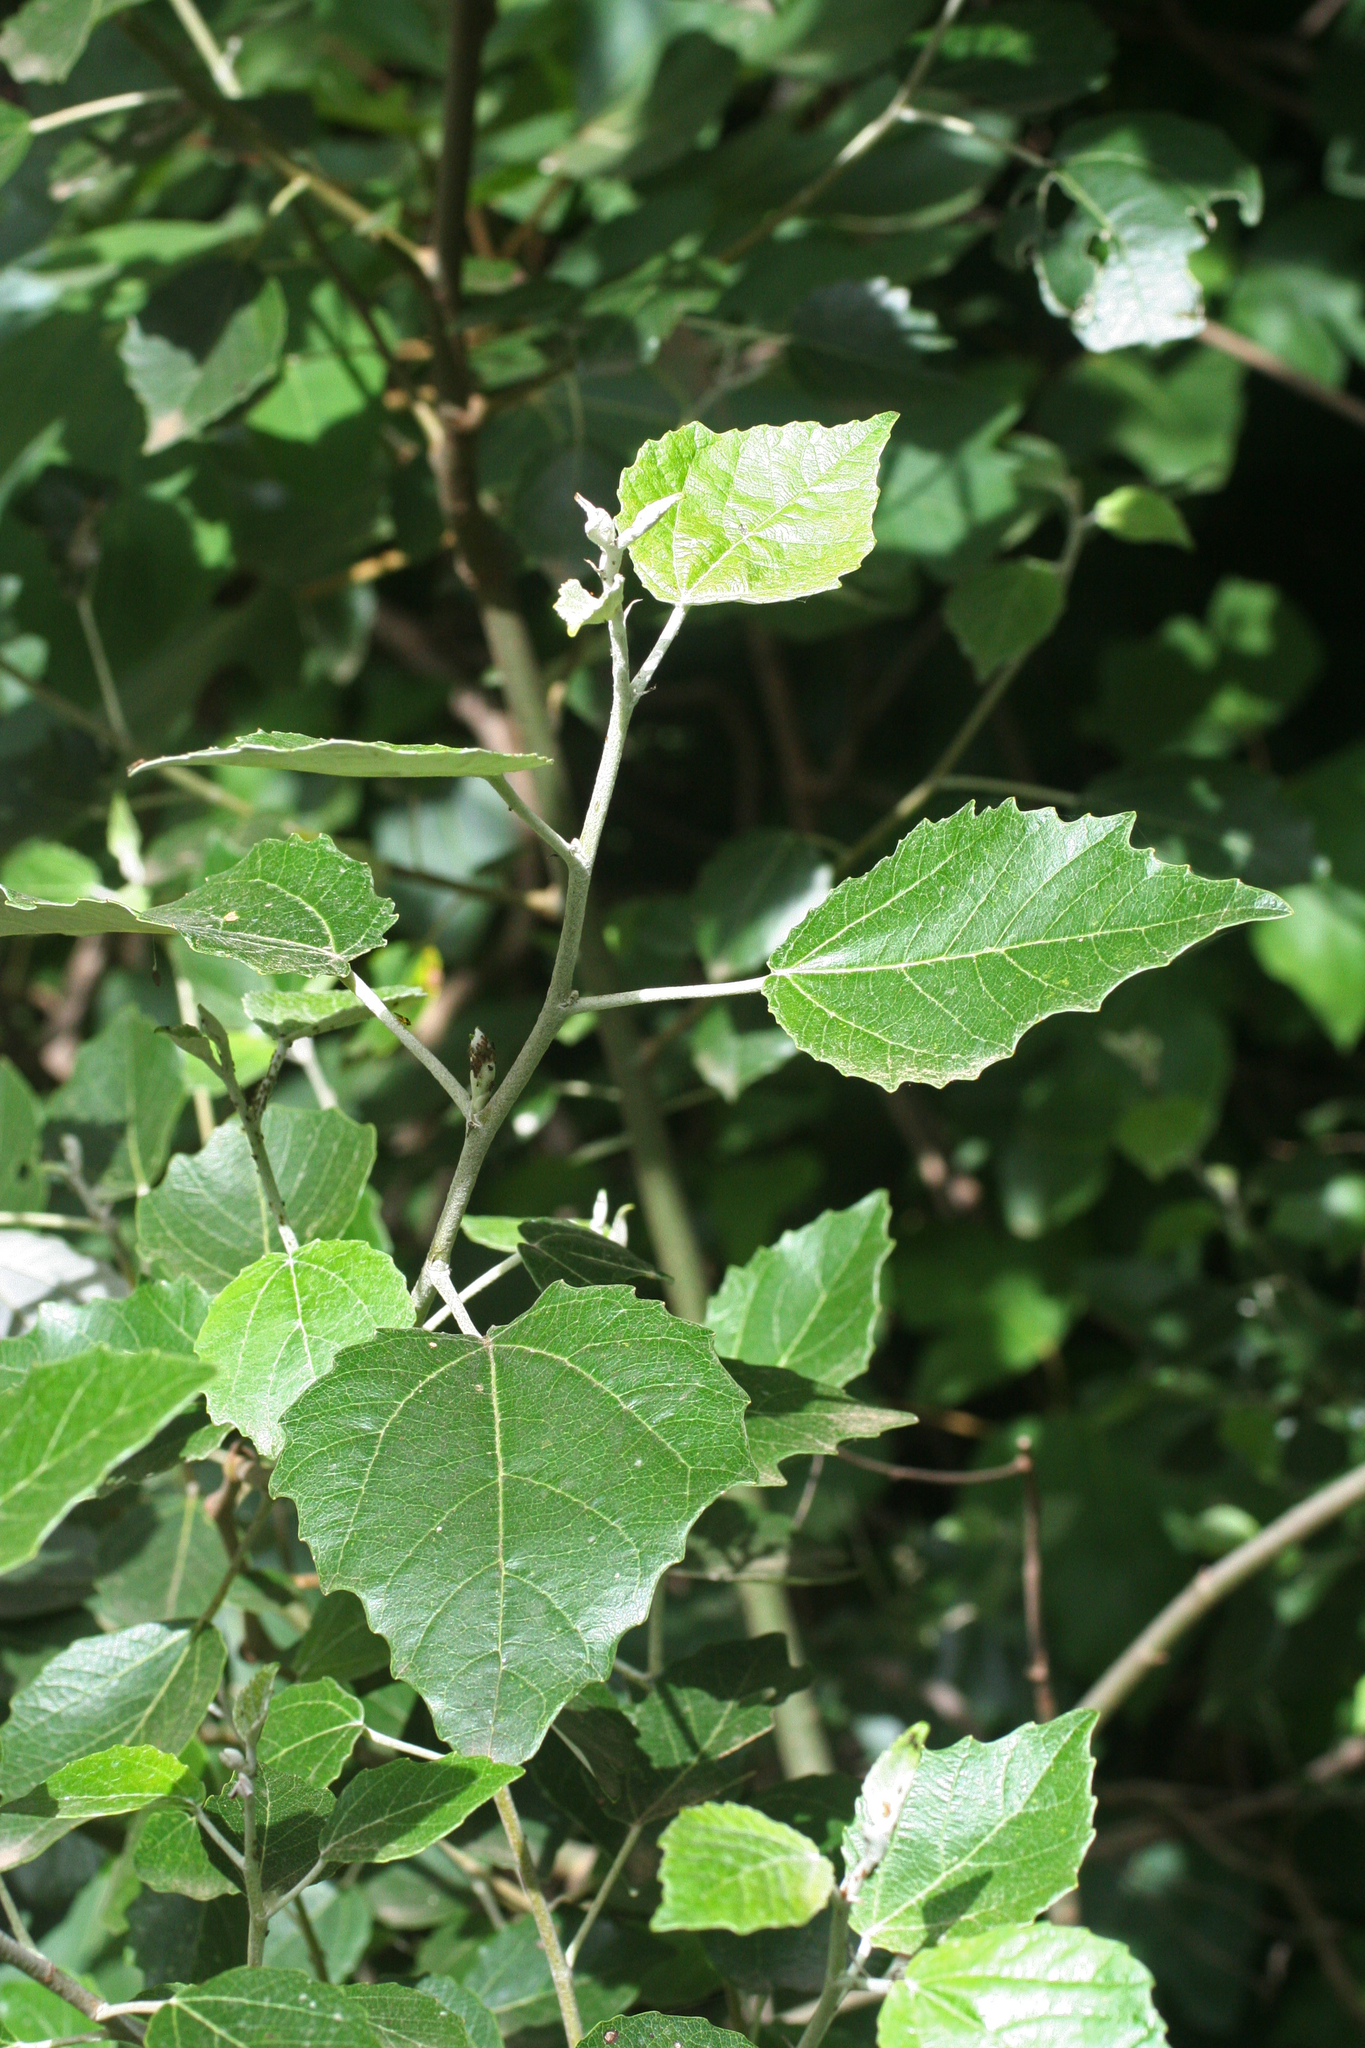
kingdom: Plantae
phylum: Tracheophyta
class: Magnoliopsida
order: Malpighiales
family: Salicaceae
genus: Populus
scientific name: Populus alba
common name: White poplar
